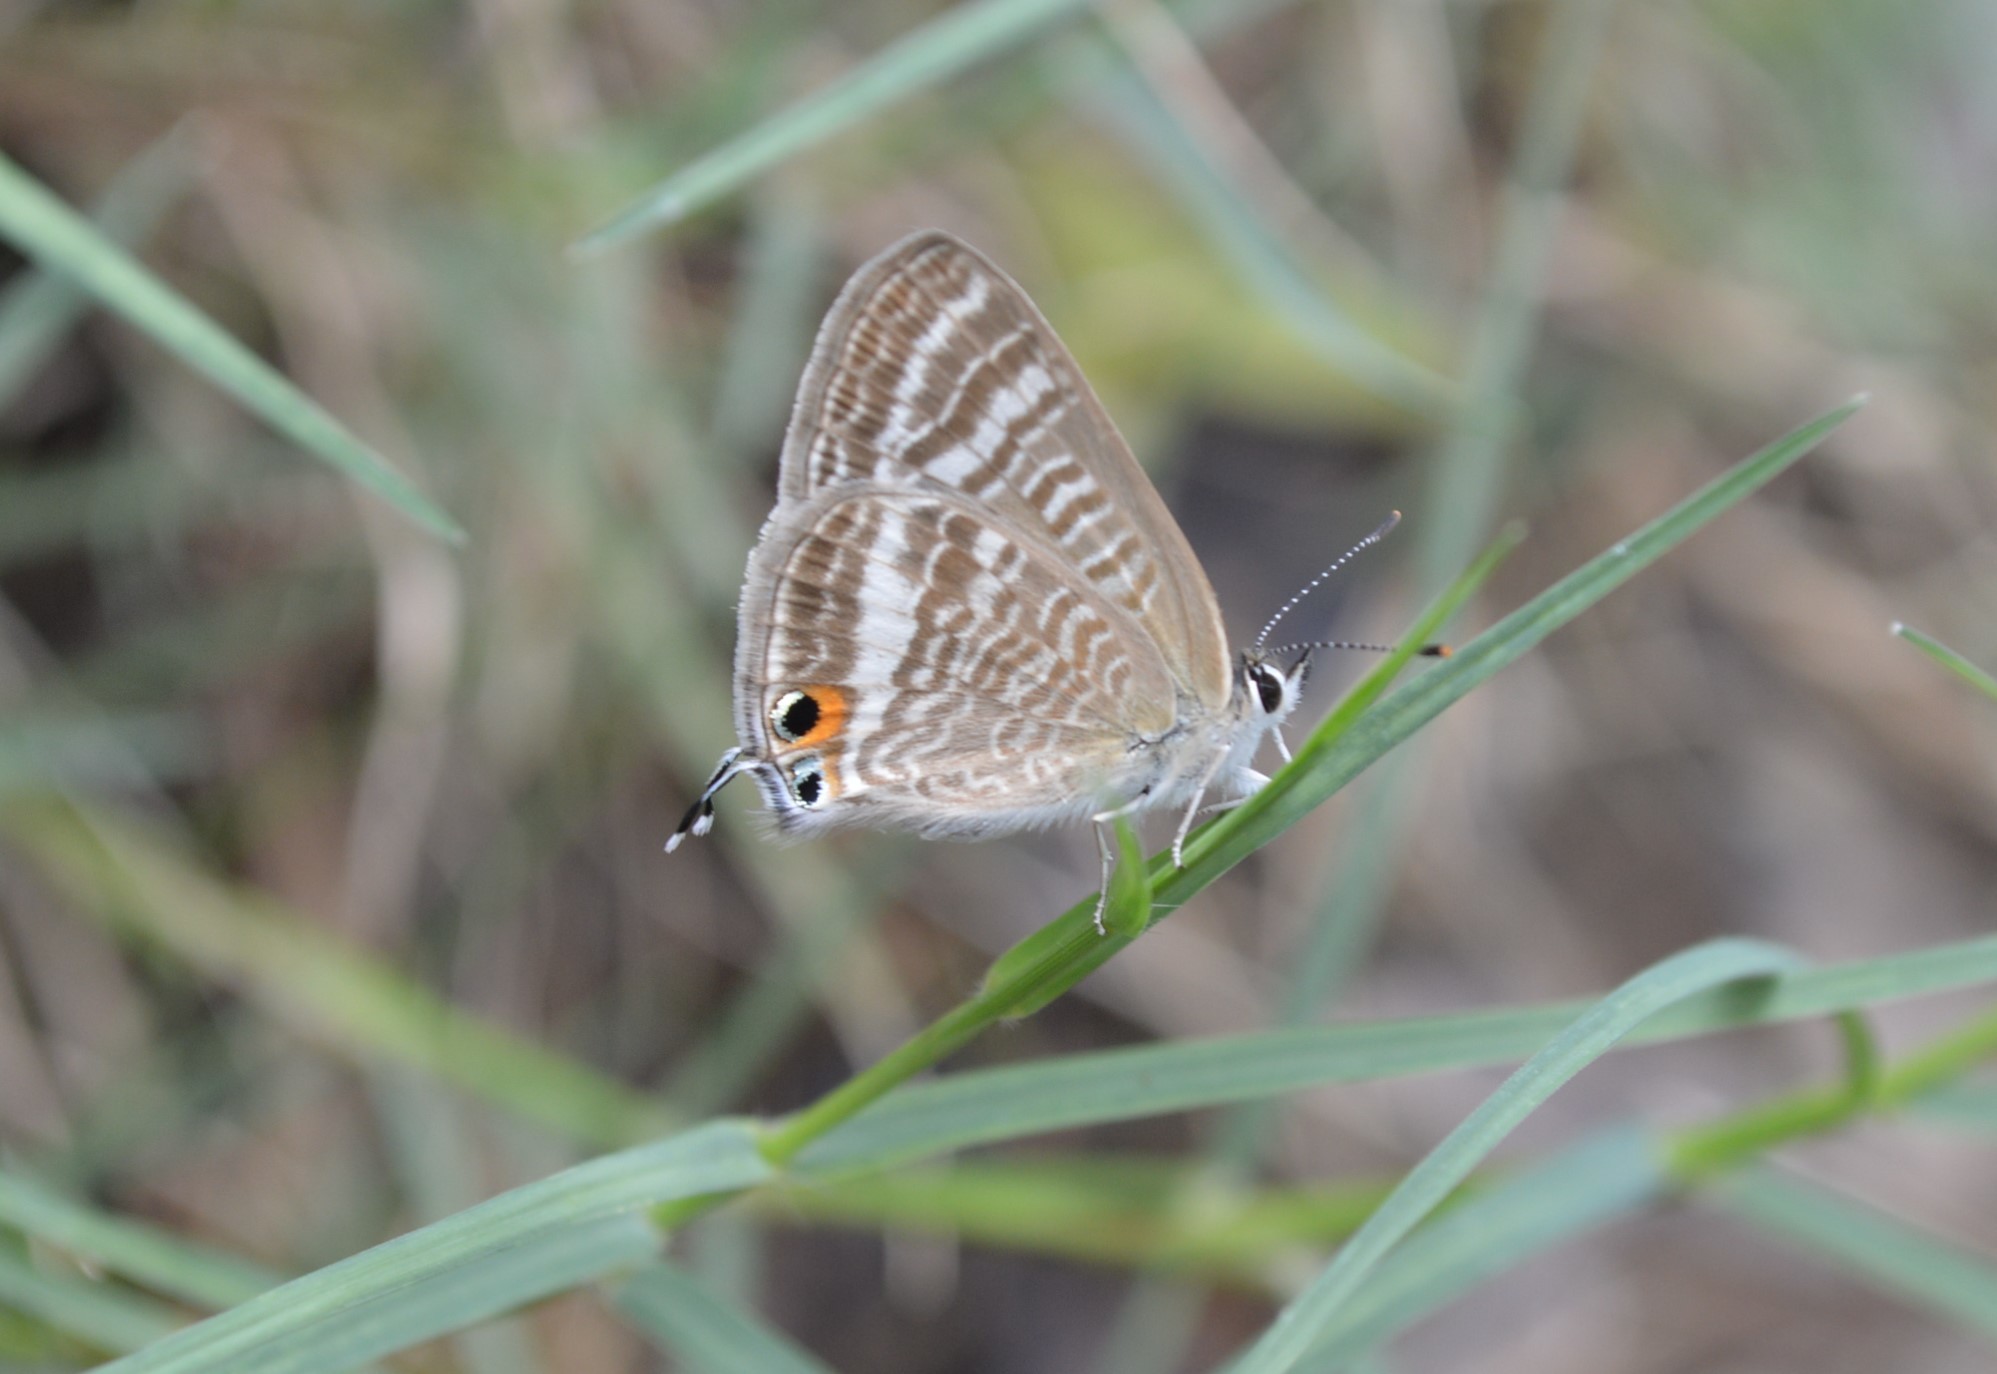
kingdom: Animalia
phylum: Arthropoda
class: Insecta
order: Lepidoptera
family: Lycaenidae
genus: Lampides
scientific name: Lampides boeticus
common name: Long-tailed blue
